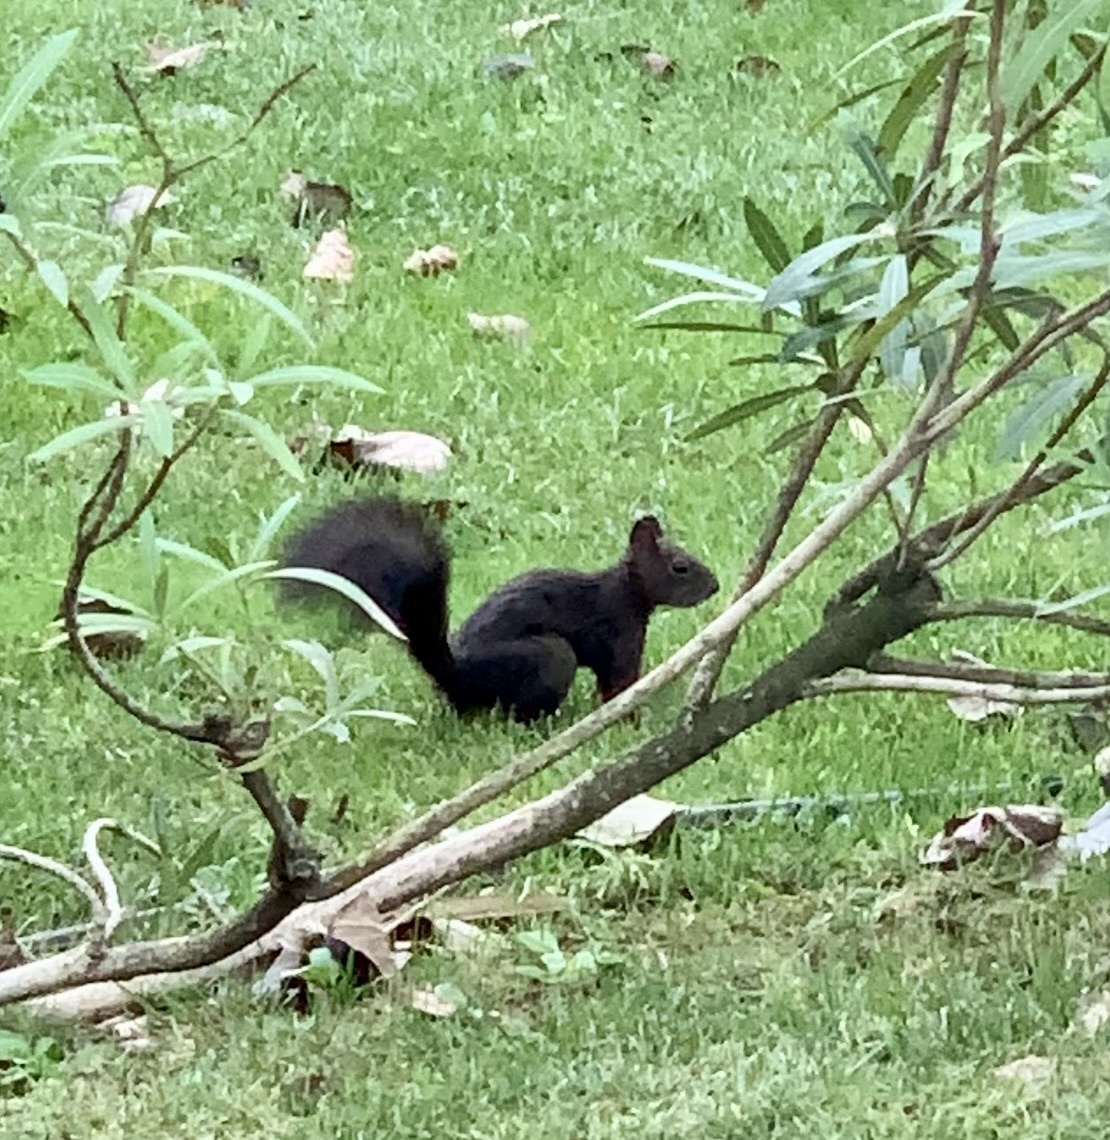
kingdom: Animalia
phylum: Chordata
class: Mammalia
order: Rodentia
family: Sciuridae
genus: Sciurus
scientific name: Sciurus vulgaris
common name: Eurasian red squirrel
